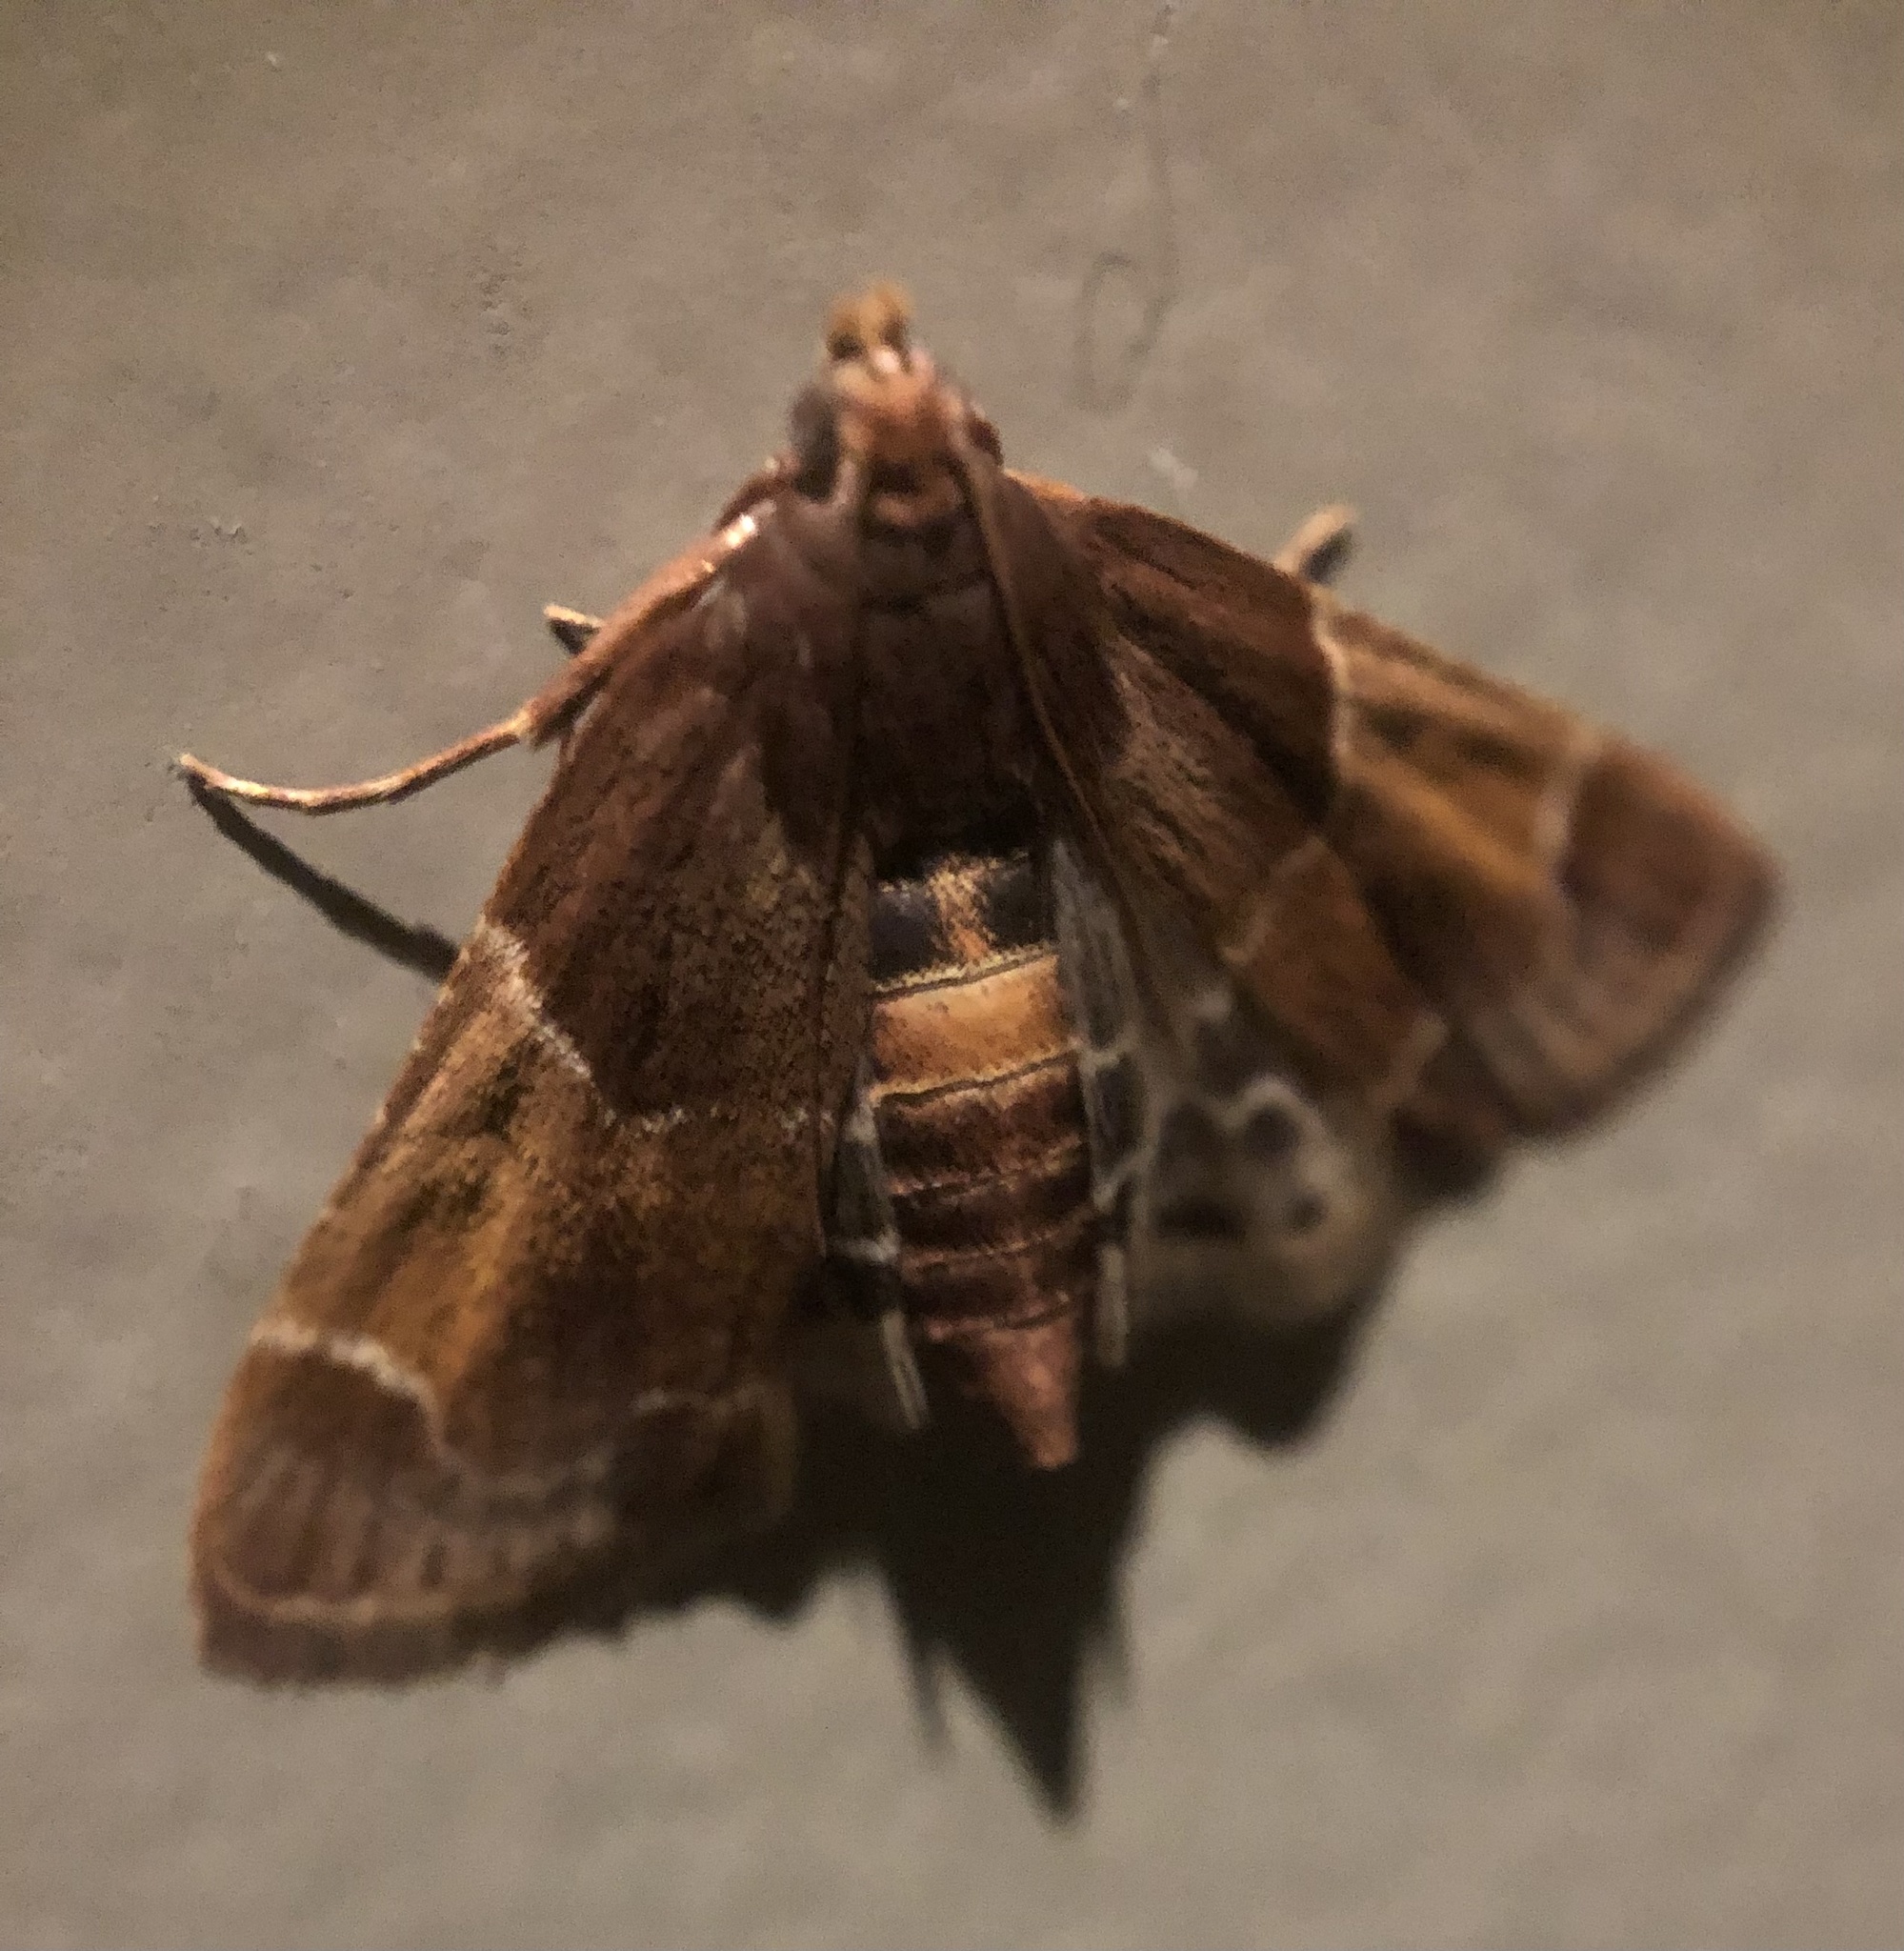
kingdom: Animalia
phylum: Arthropoda
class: Insecta
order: Lepidoptera
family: Pyralidae
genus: Pyralis
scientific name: Pyralis farinalis
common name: Meal moth
